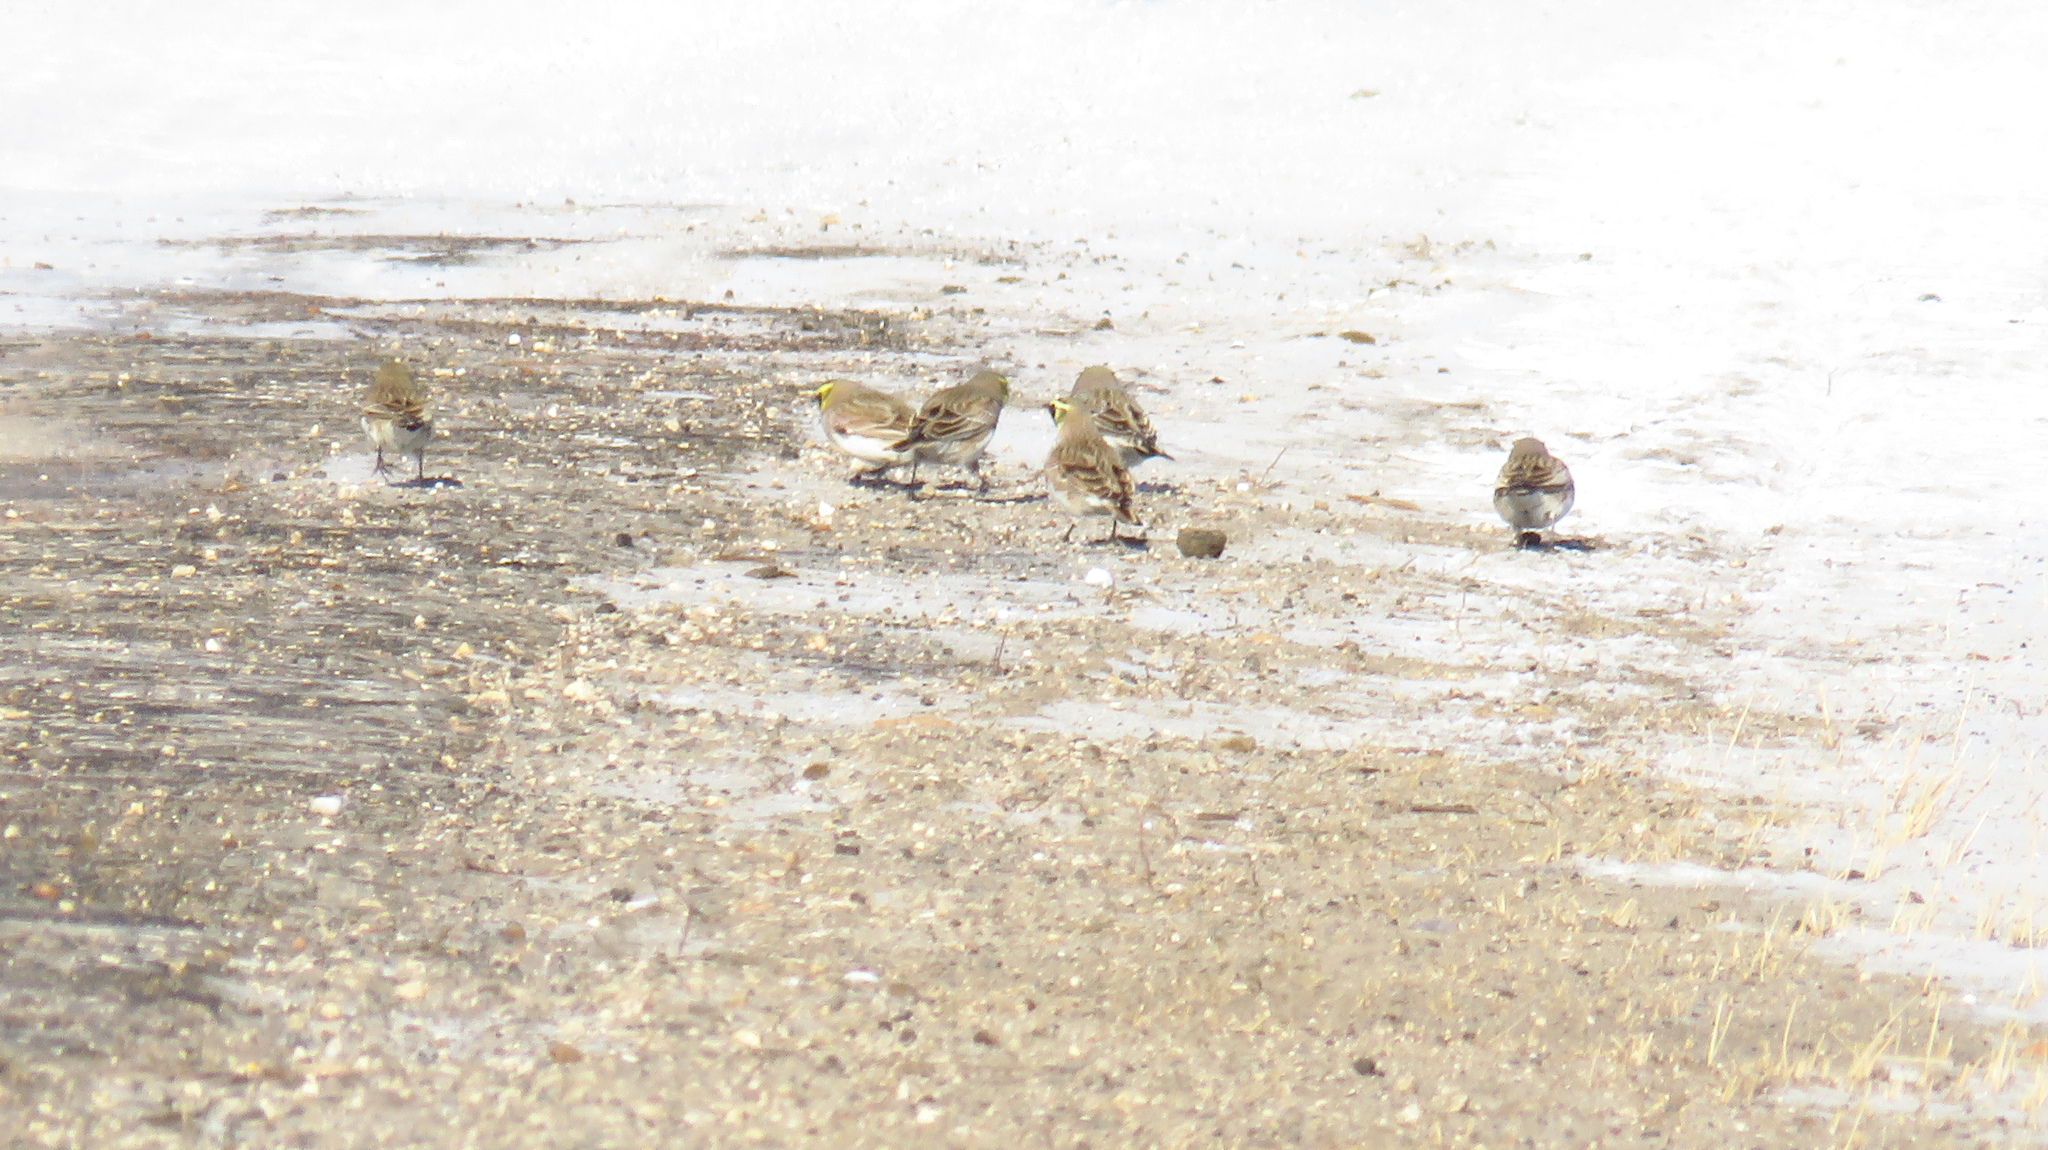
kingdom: Animalia
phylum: Chordata
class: Aves
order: Passeriformes
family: Alaudidae
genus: Eremophila
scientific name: Eremophila alpestris
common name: Horned lark
